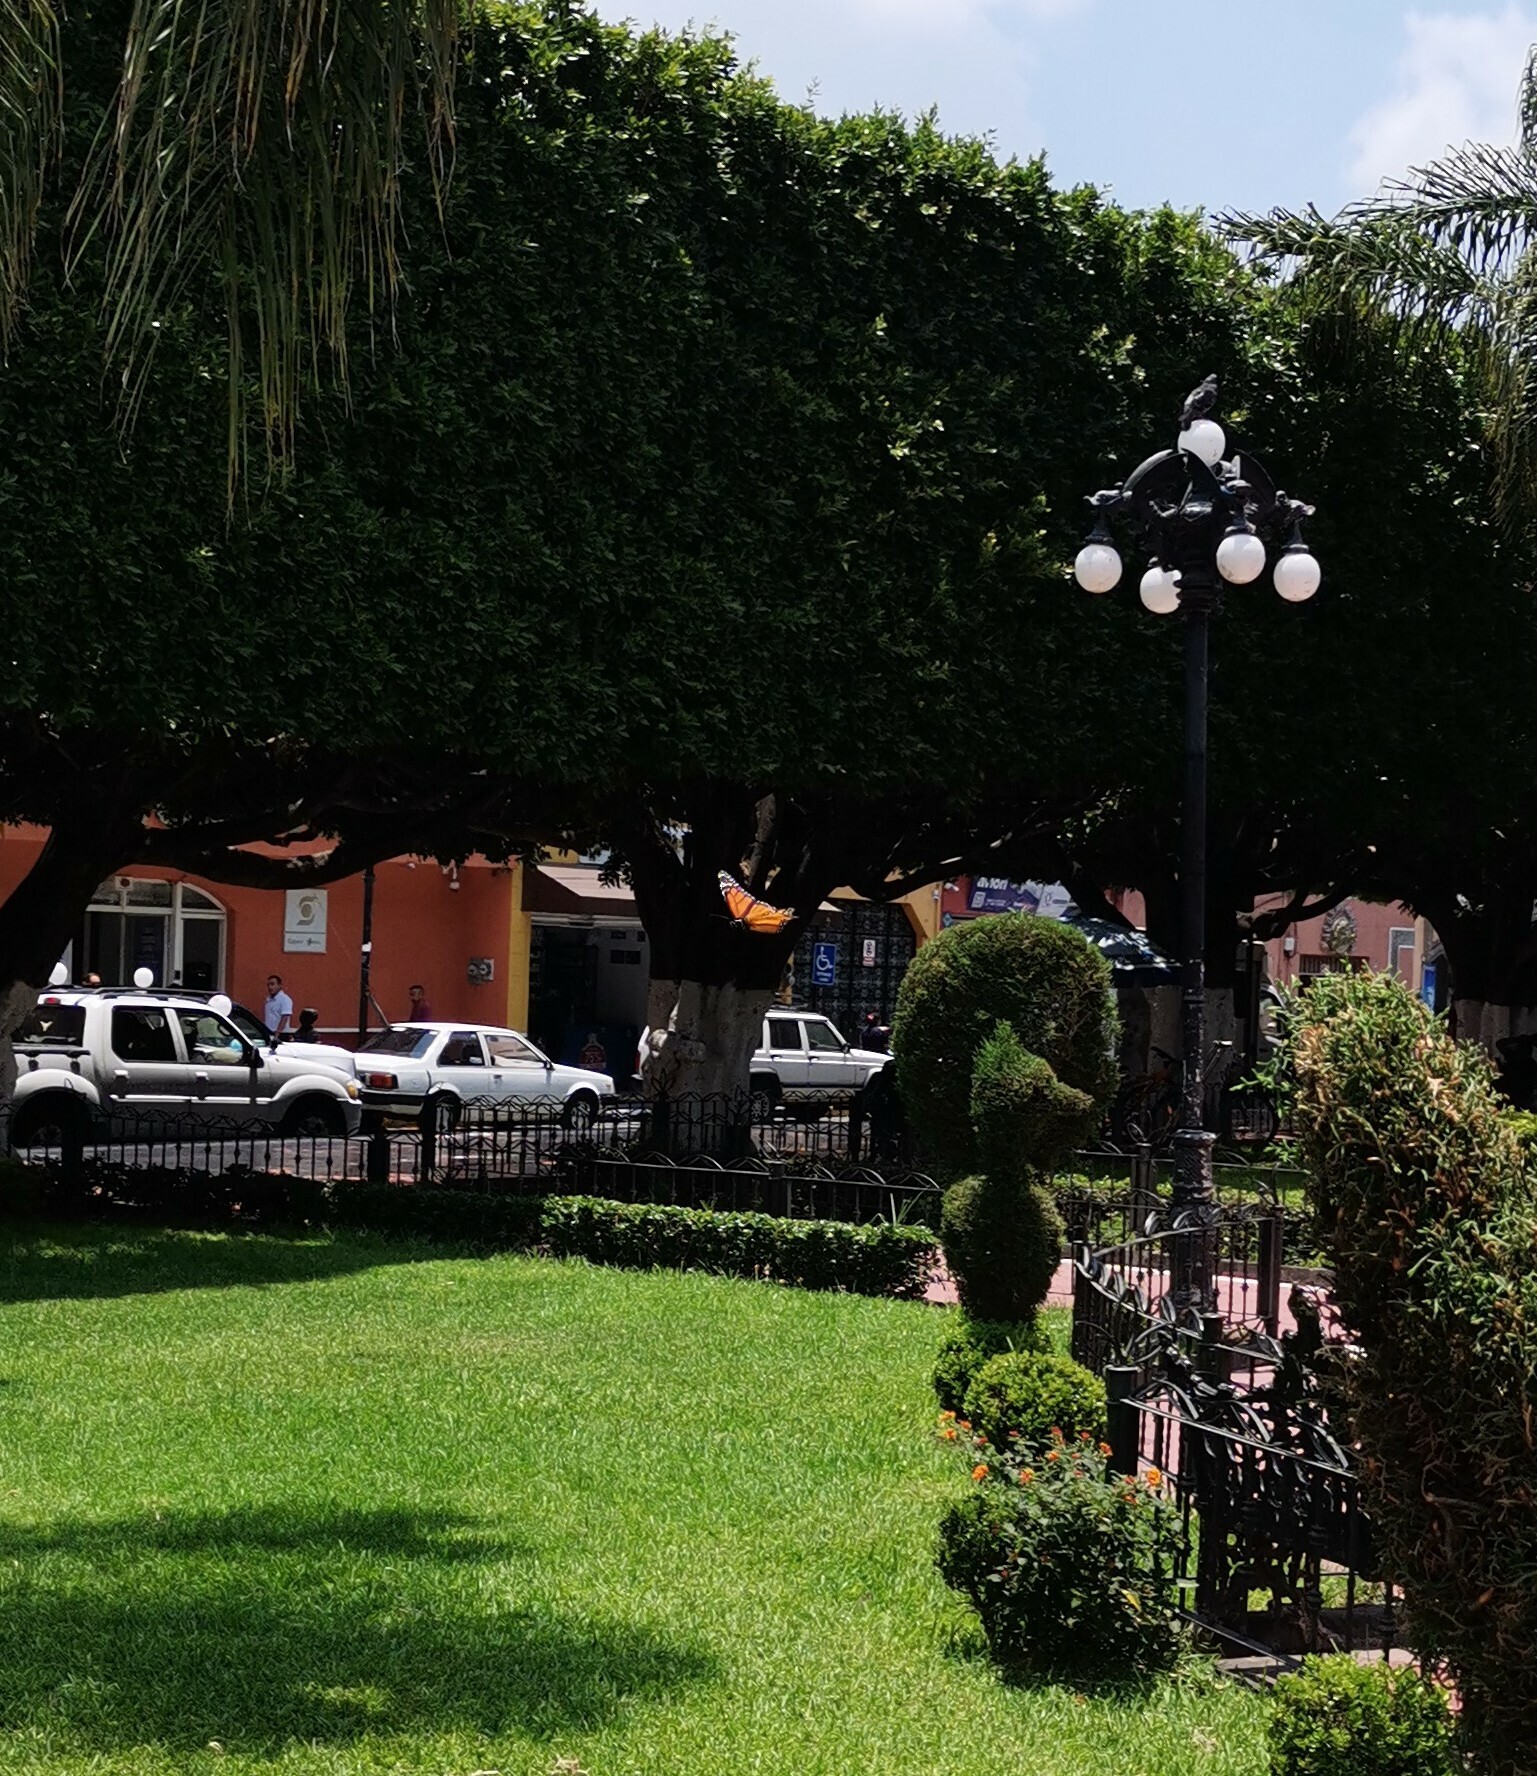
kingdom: Animalia
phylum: Arthropoda
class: Insecta
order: Lepidoptera
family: Nymphalidae
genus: Danaus
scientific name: Danaus plexippus
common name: Monarch
